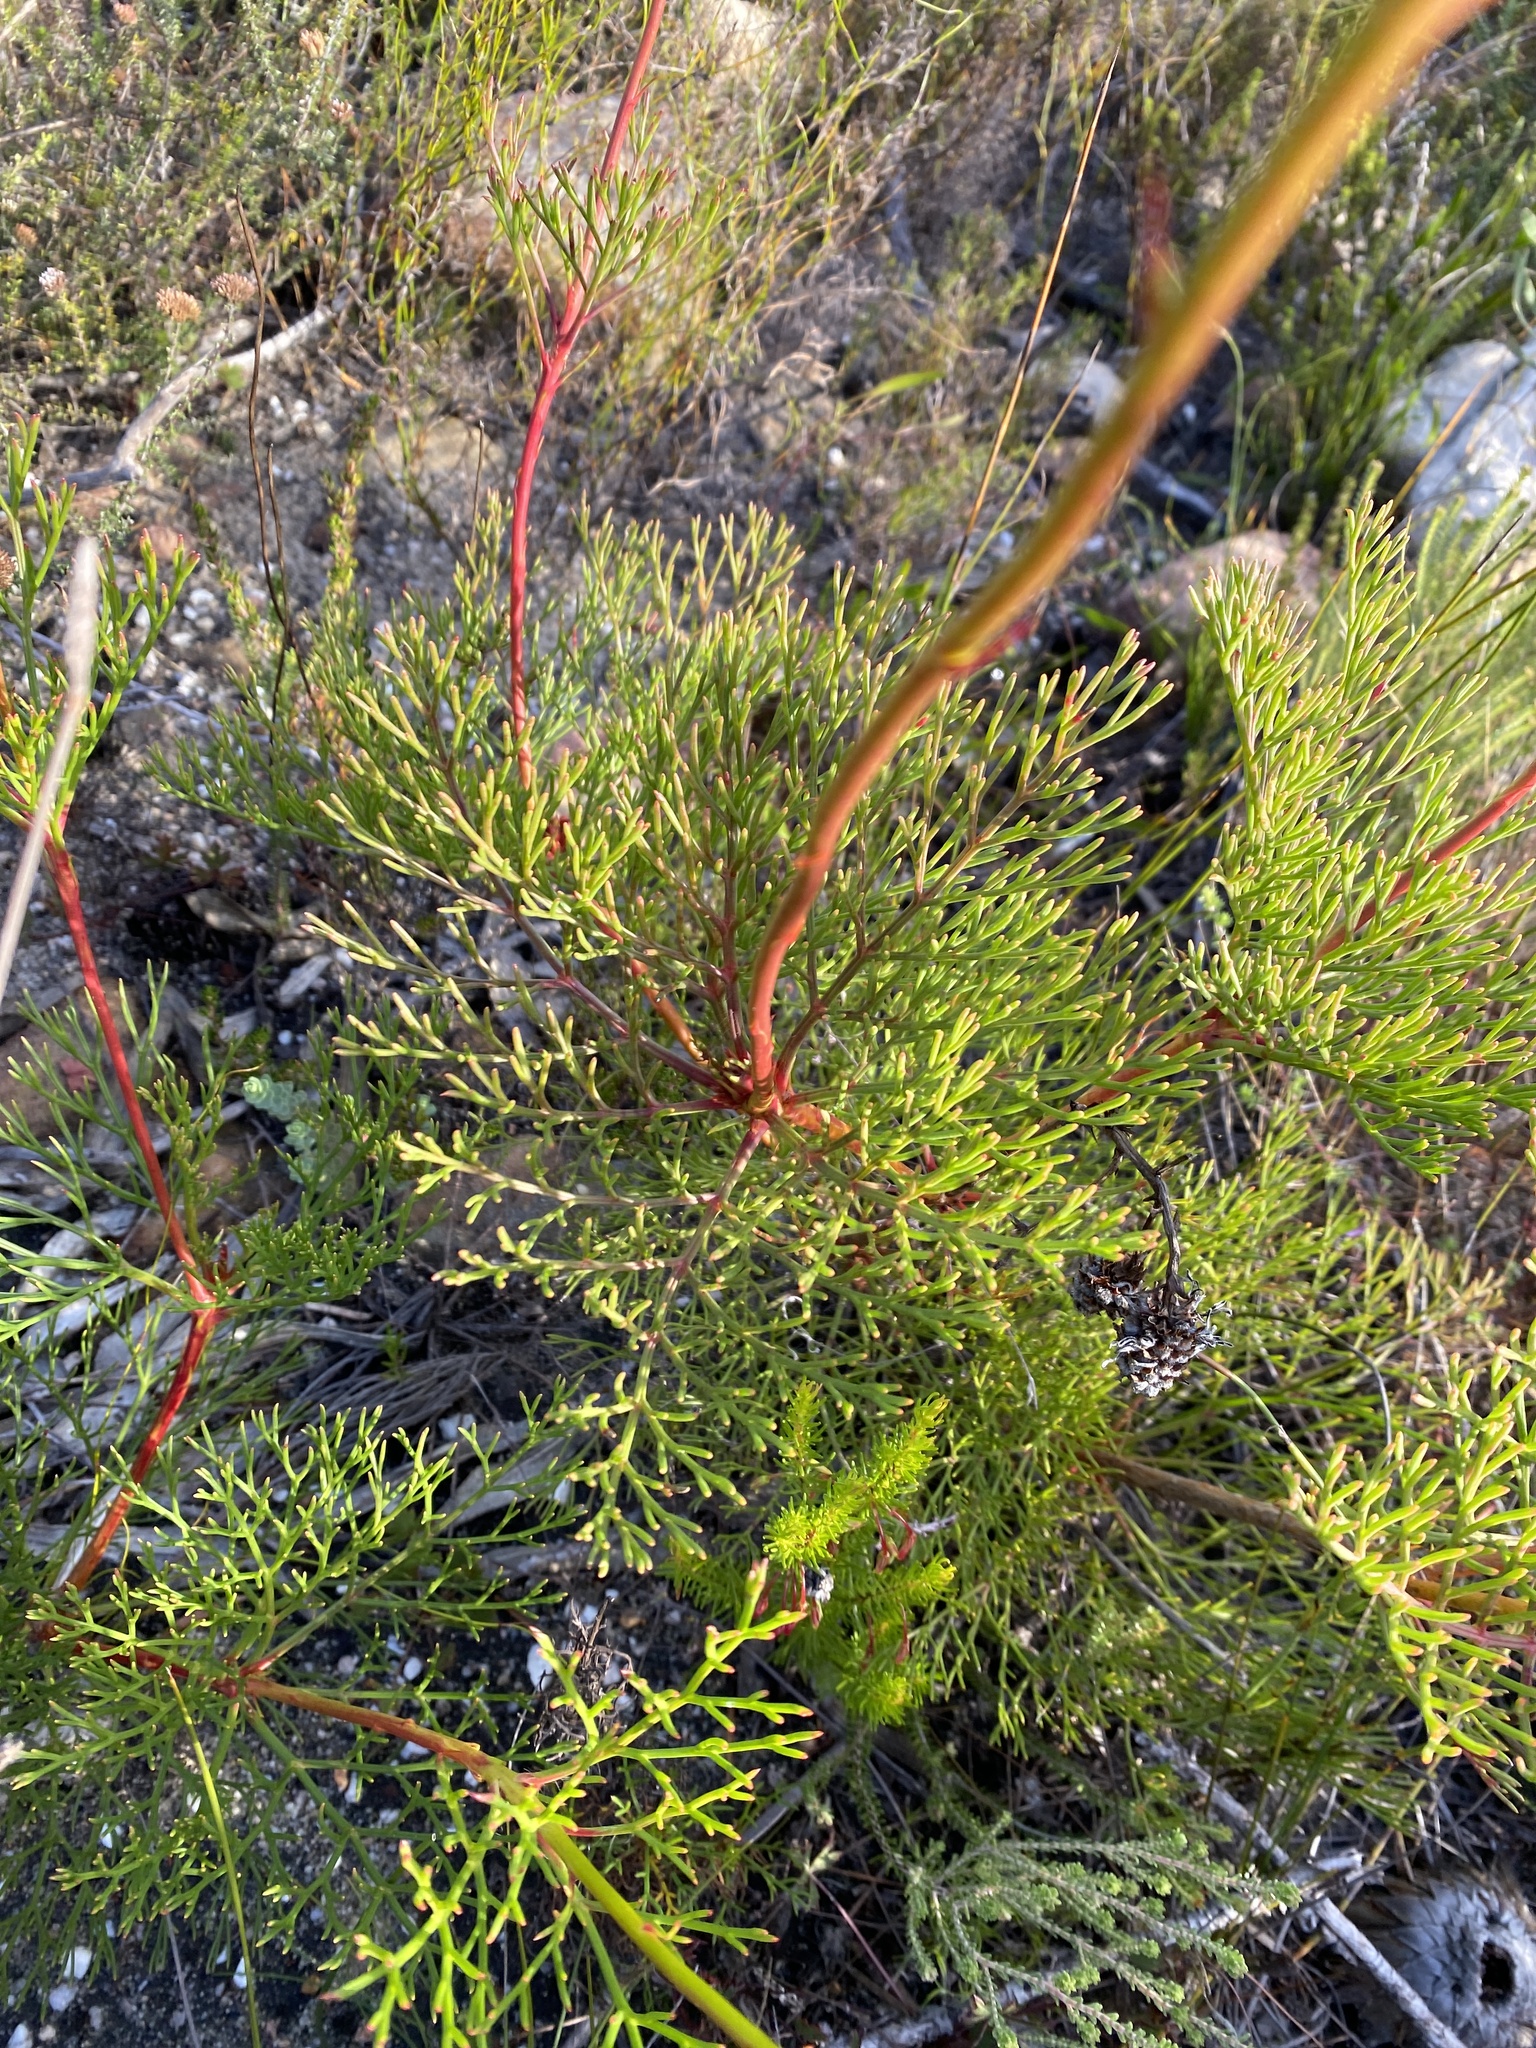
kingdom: Plantae
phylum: Tracheophyta
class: Magnoliopsida
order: Proteales
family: Proteaceae
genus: Serruria
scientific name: Serruria elongata
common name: Long-stalk spiderhead
